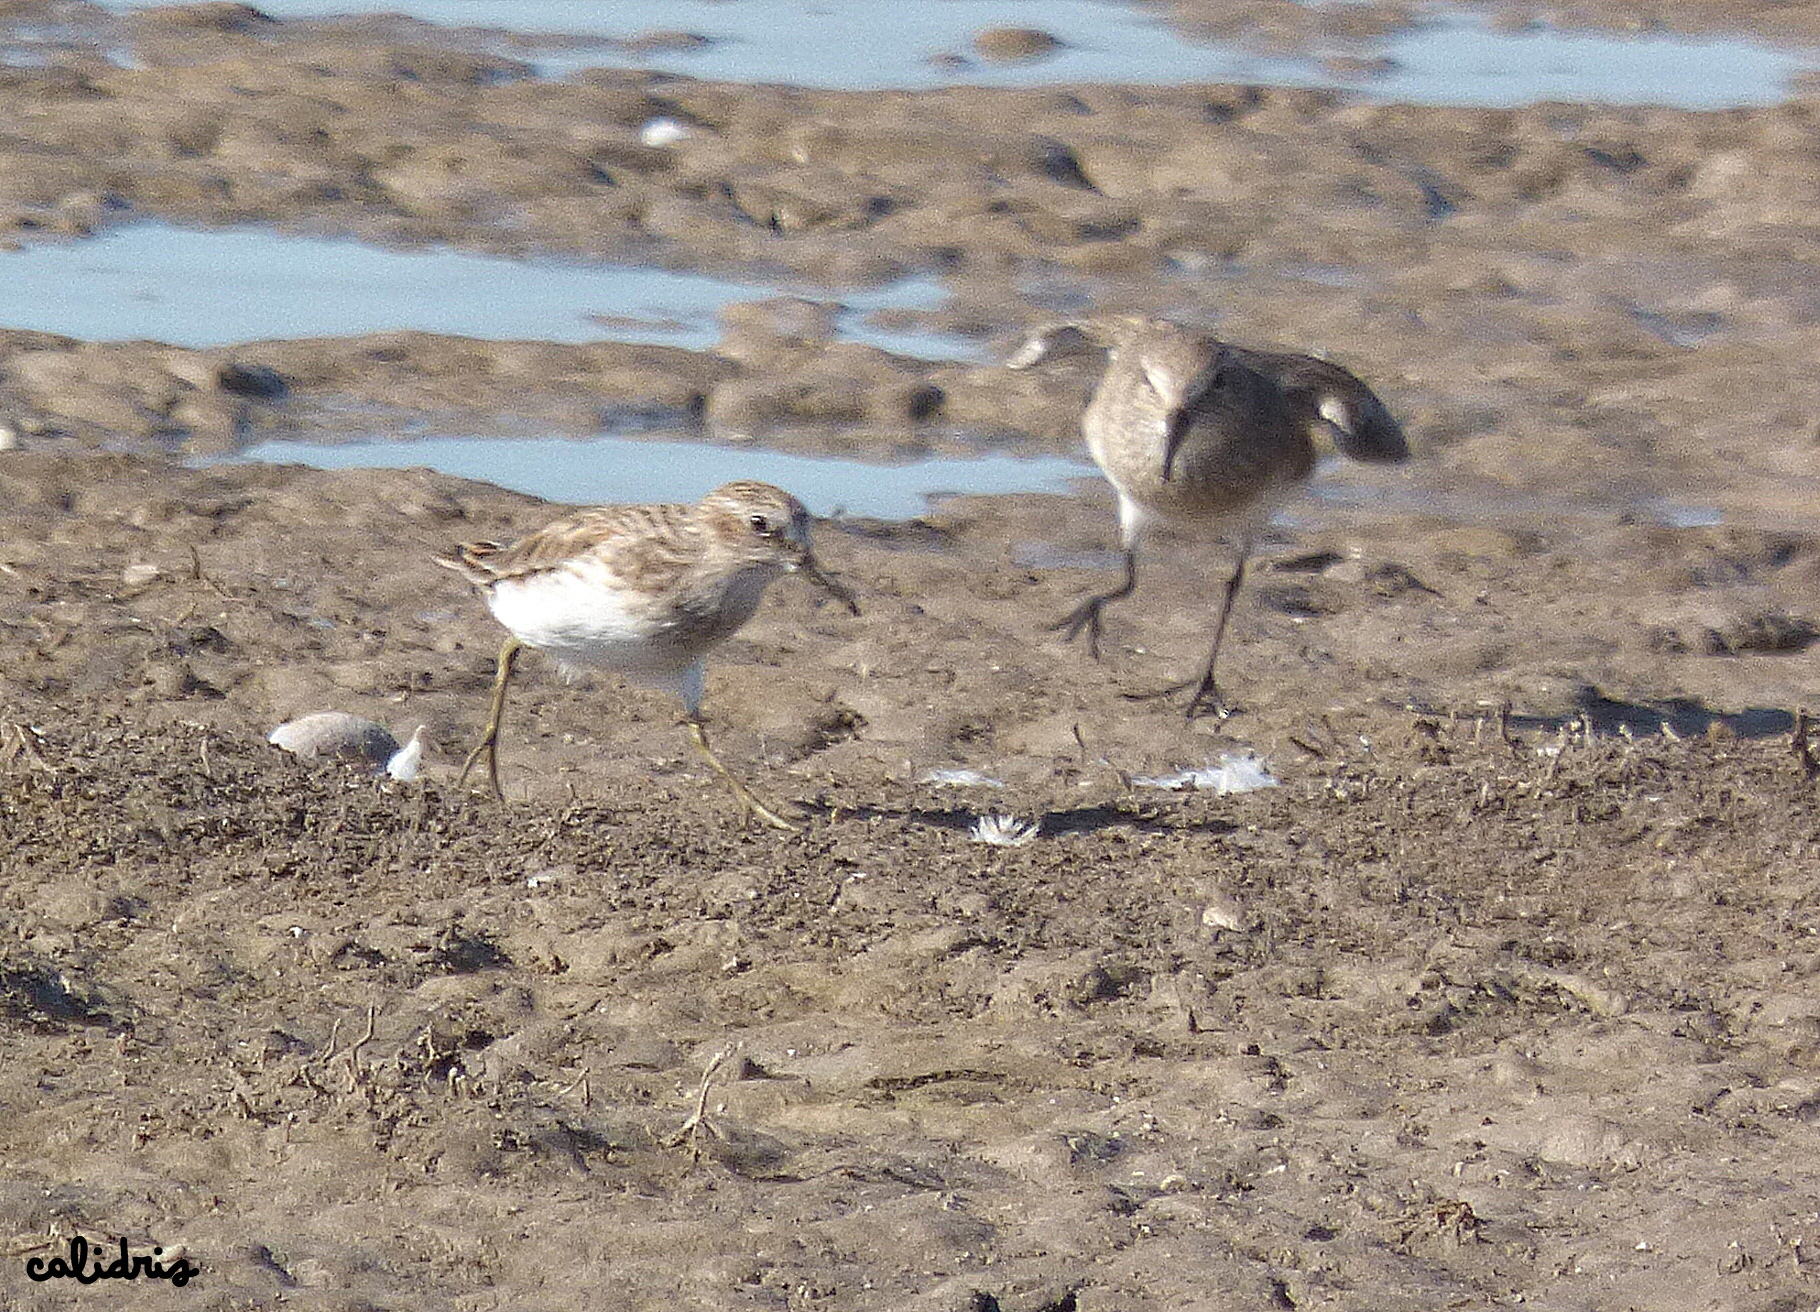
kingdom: Animalia
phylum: Chordata
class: Aves
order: Charadriiformes
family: Scolopacidae
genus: Calidris
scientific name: Calidris minutilla
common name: Least sandpiper
